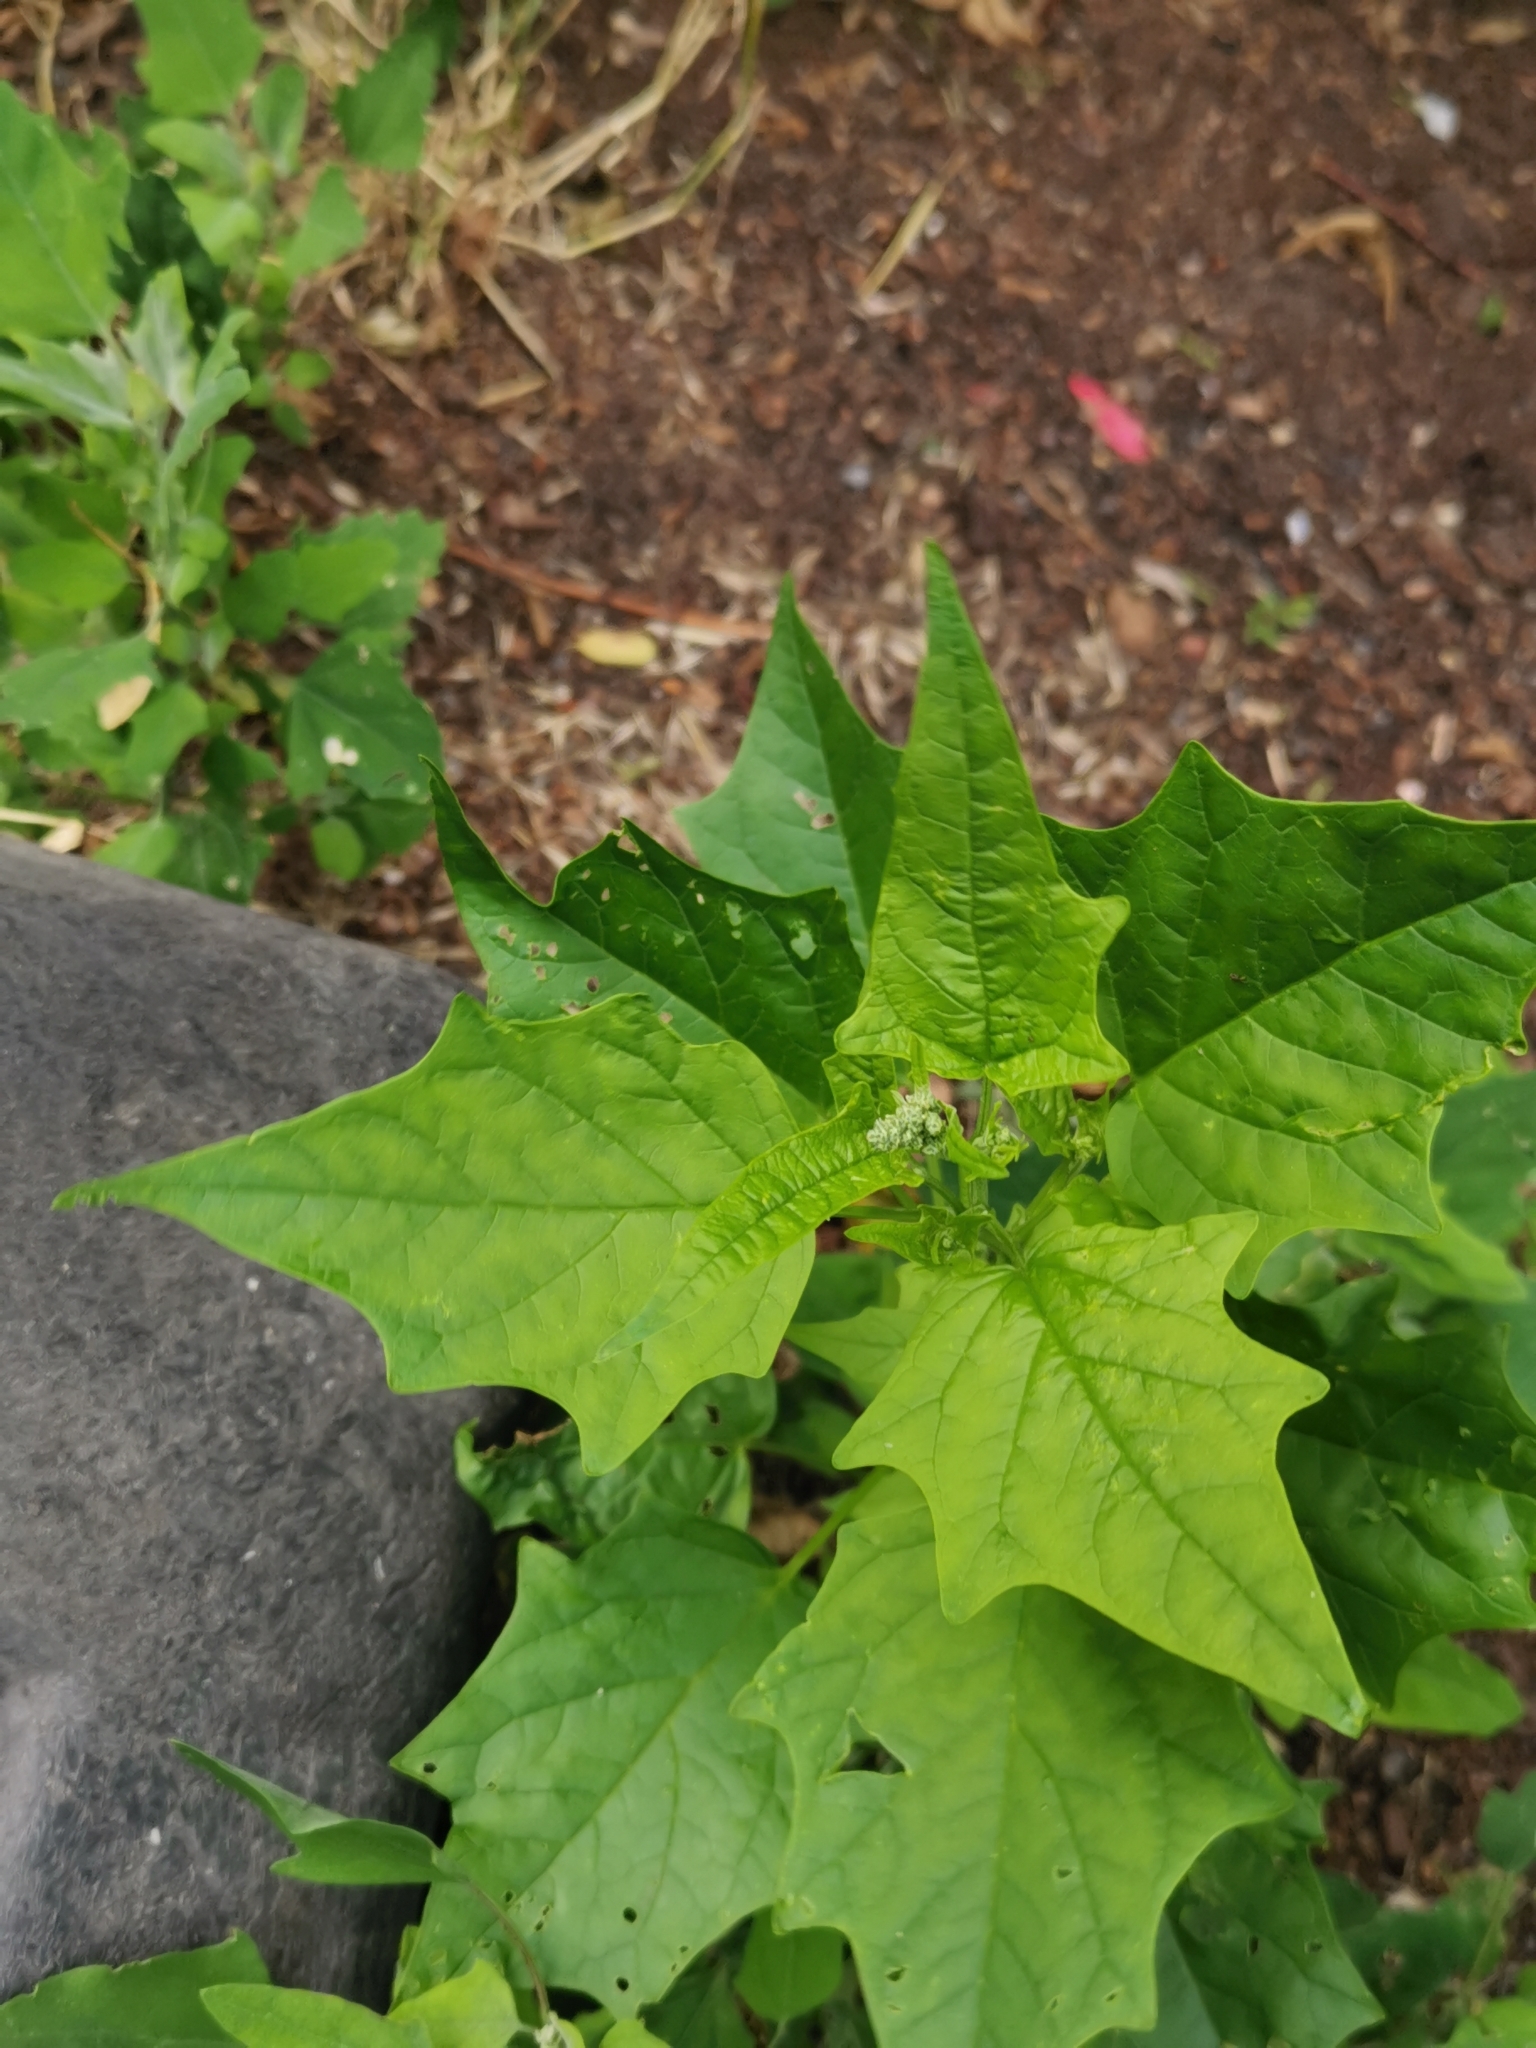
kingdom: Plantae
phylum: Tracheophyta
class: Magnoliopsida
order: Caryophyllales
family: Amaranthaceae
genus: Chenopodiastrum
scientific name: Chenopodiastrum hybridum
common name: Mapleleaf goosefoot
